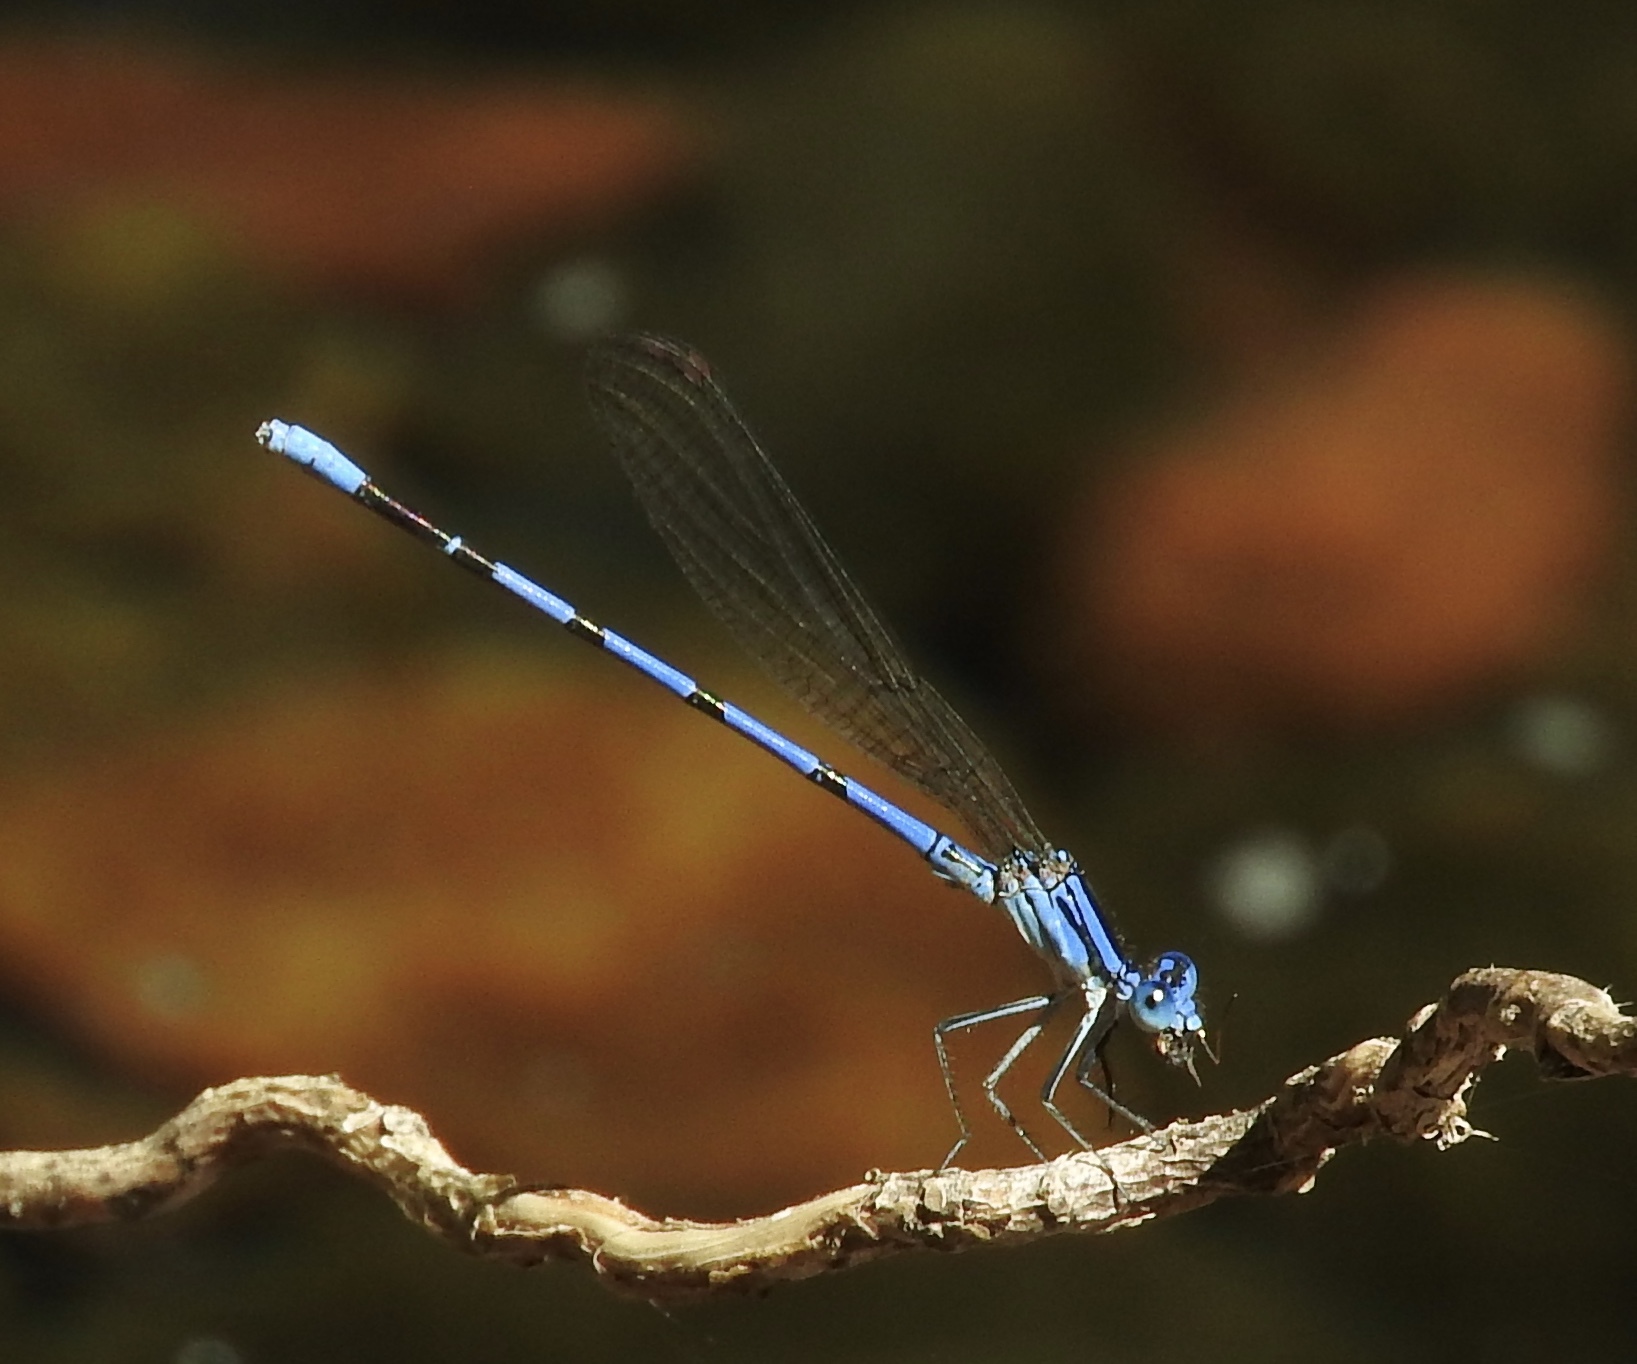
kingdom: Animalia
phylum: Arthropoda
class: Insecta
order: Odonata
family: Coenagrionidae
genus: Argia
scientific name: Argia tarascana
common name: Tarascan dancer
